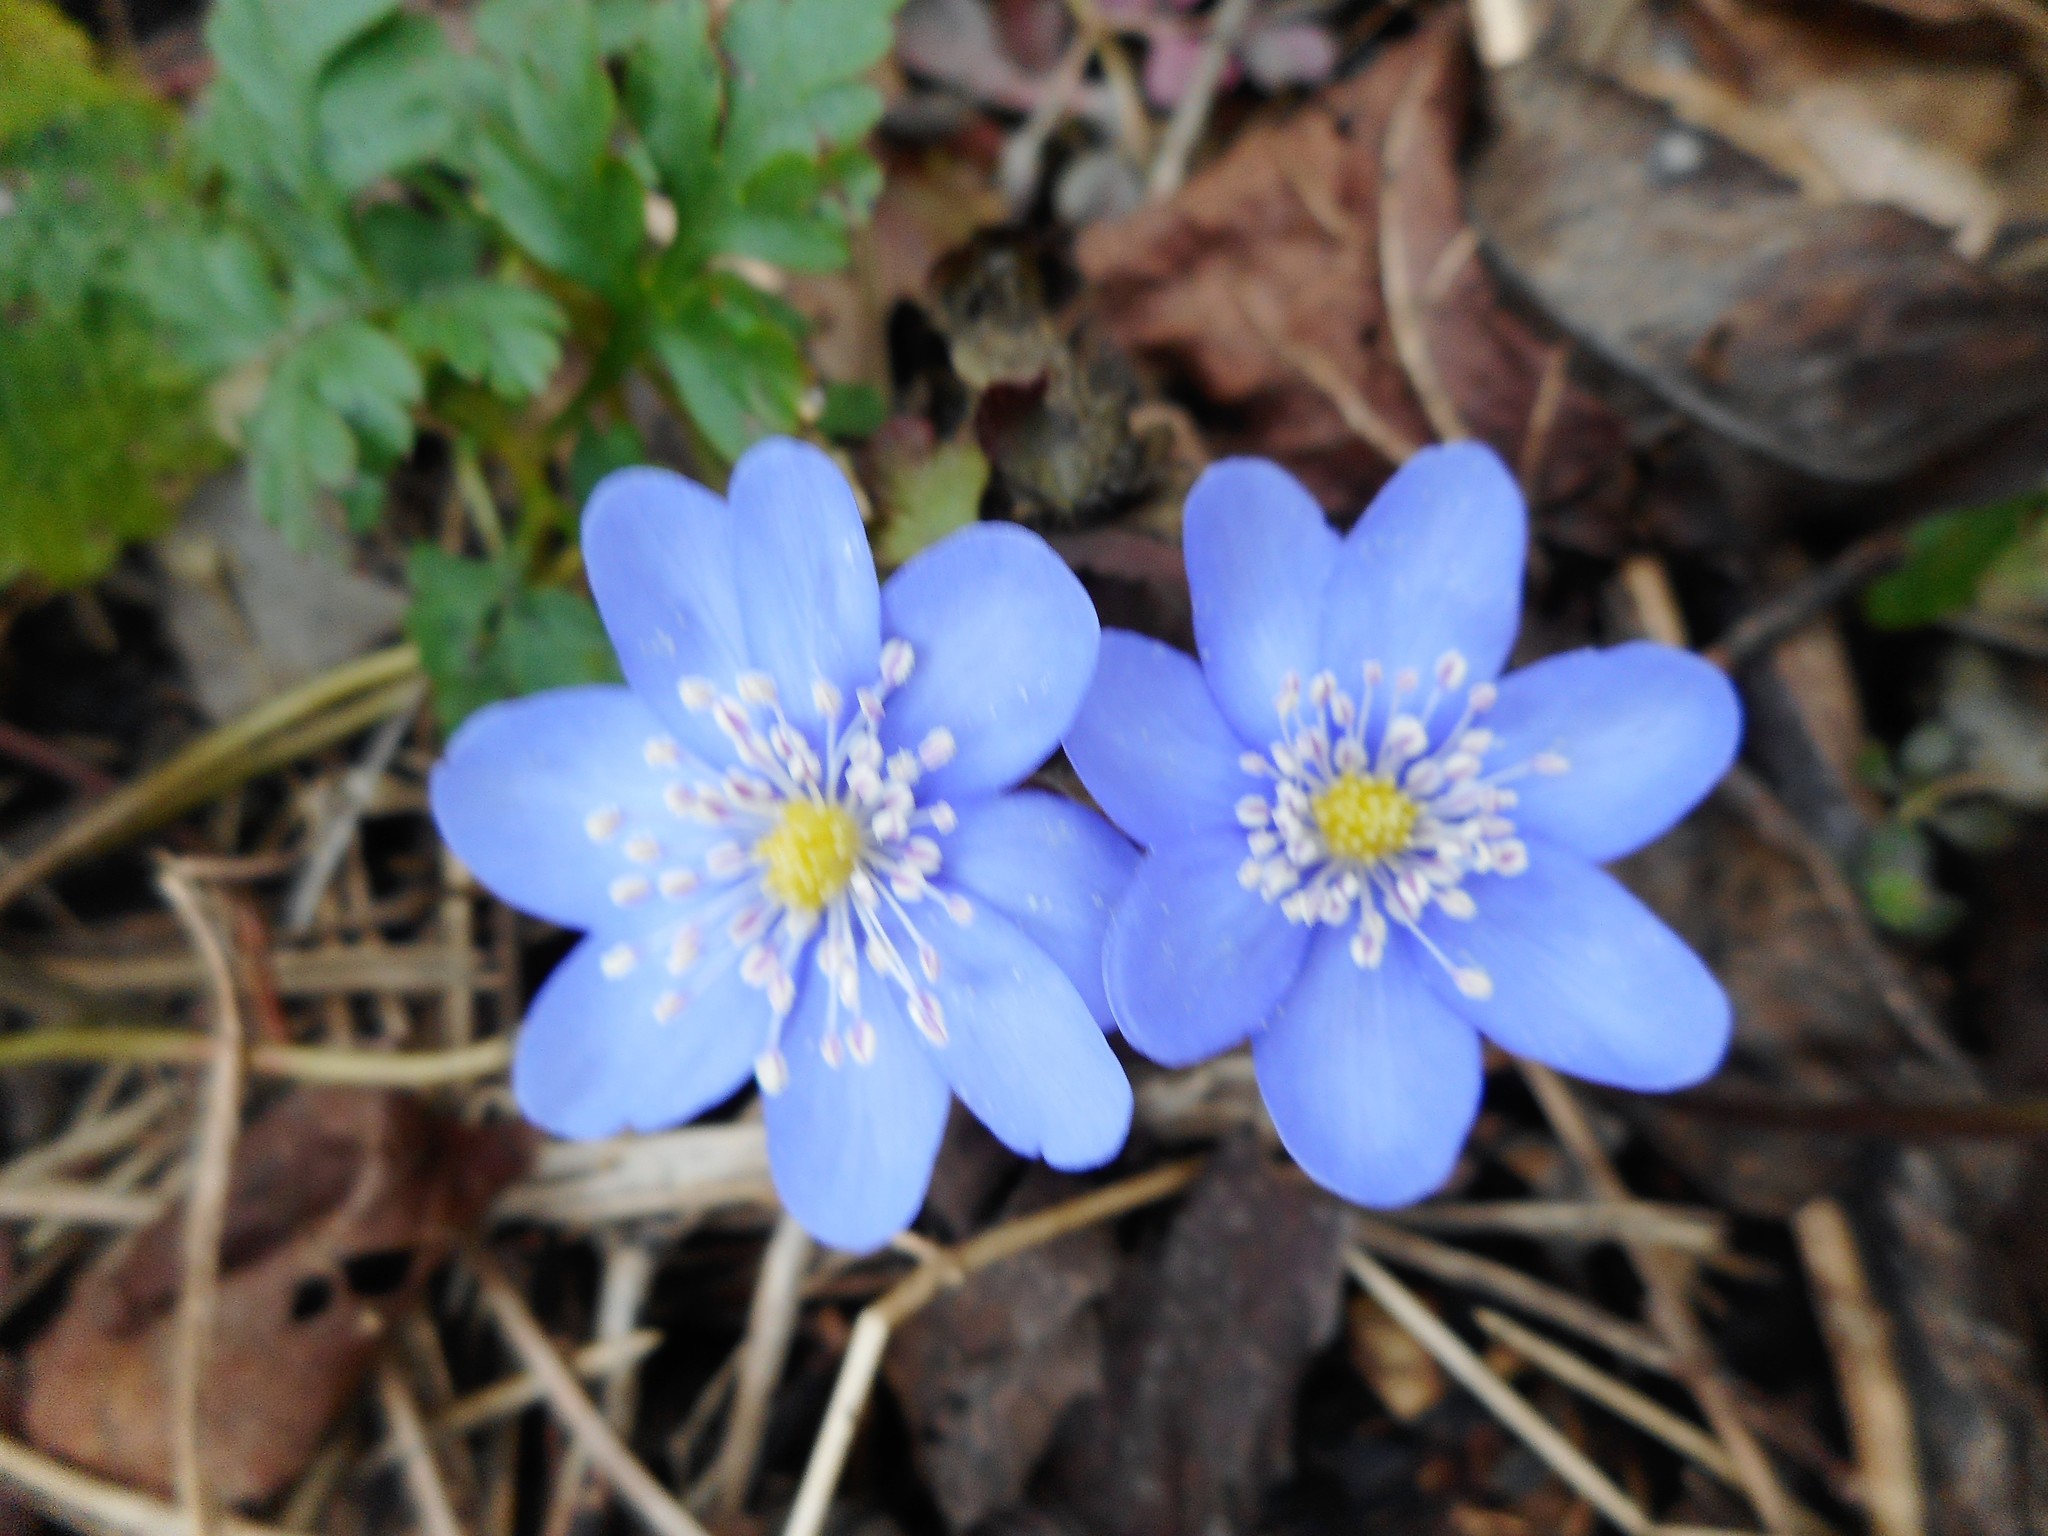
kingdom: Plantae
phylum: Tracheophyta
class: Magnoliopsida
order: Ranunculales
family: Ranunculaceae
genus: Hepatica
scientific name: Hepatica nobilis
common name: Liverleaf
